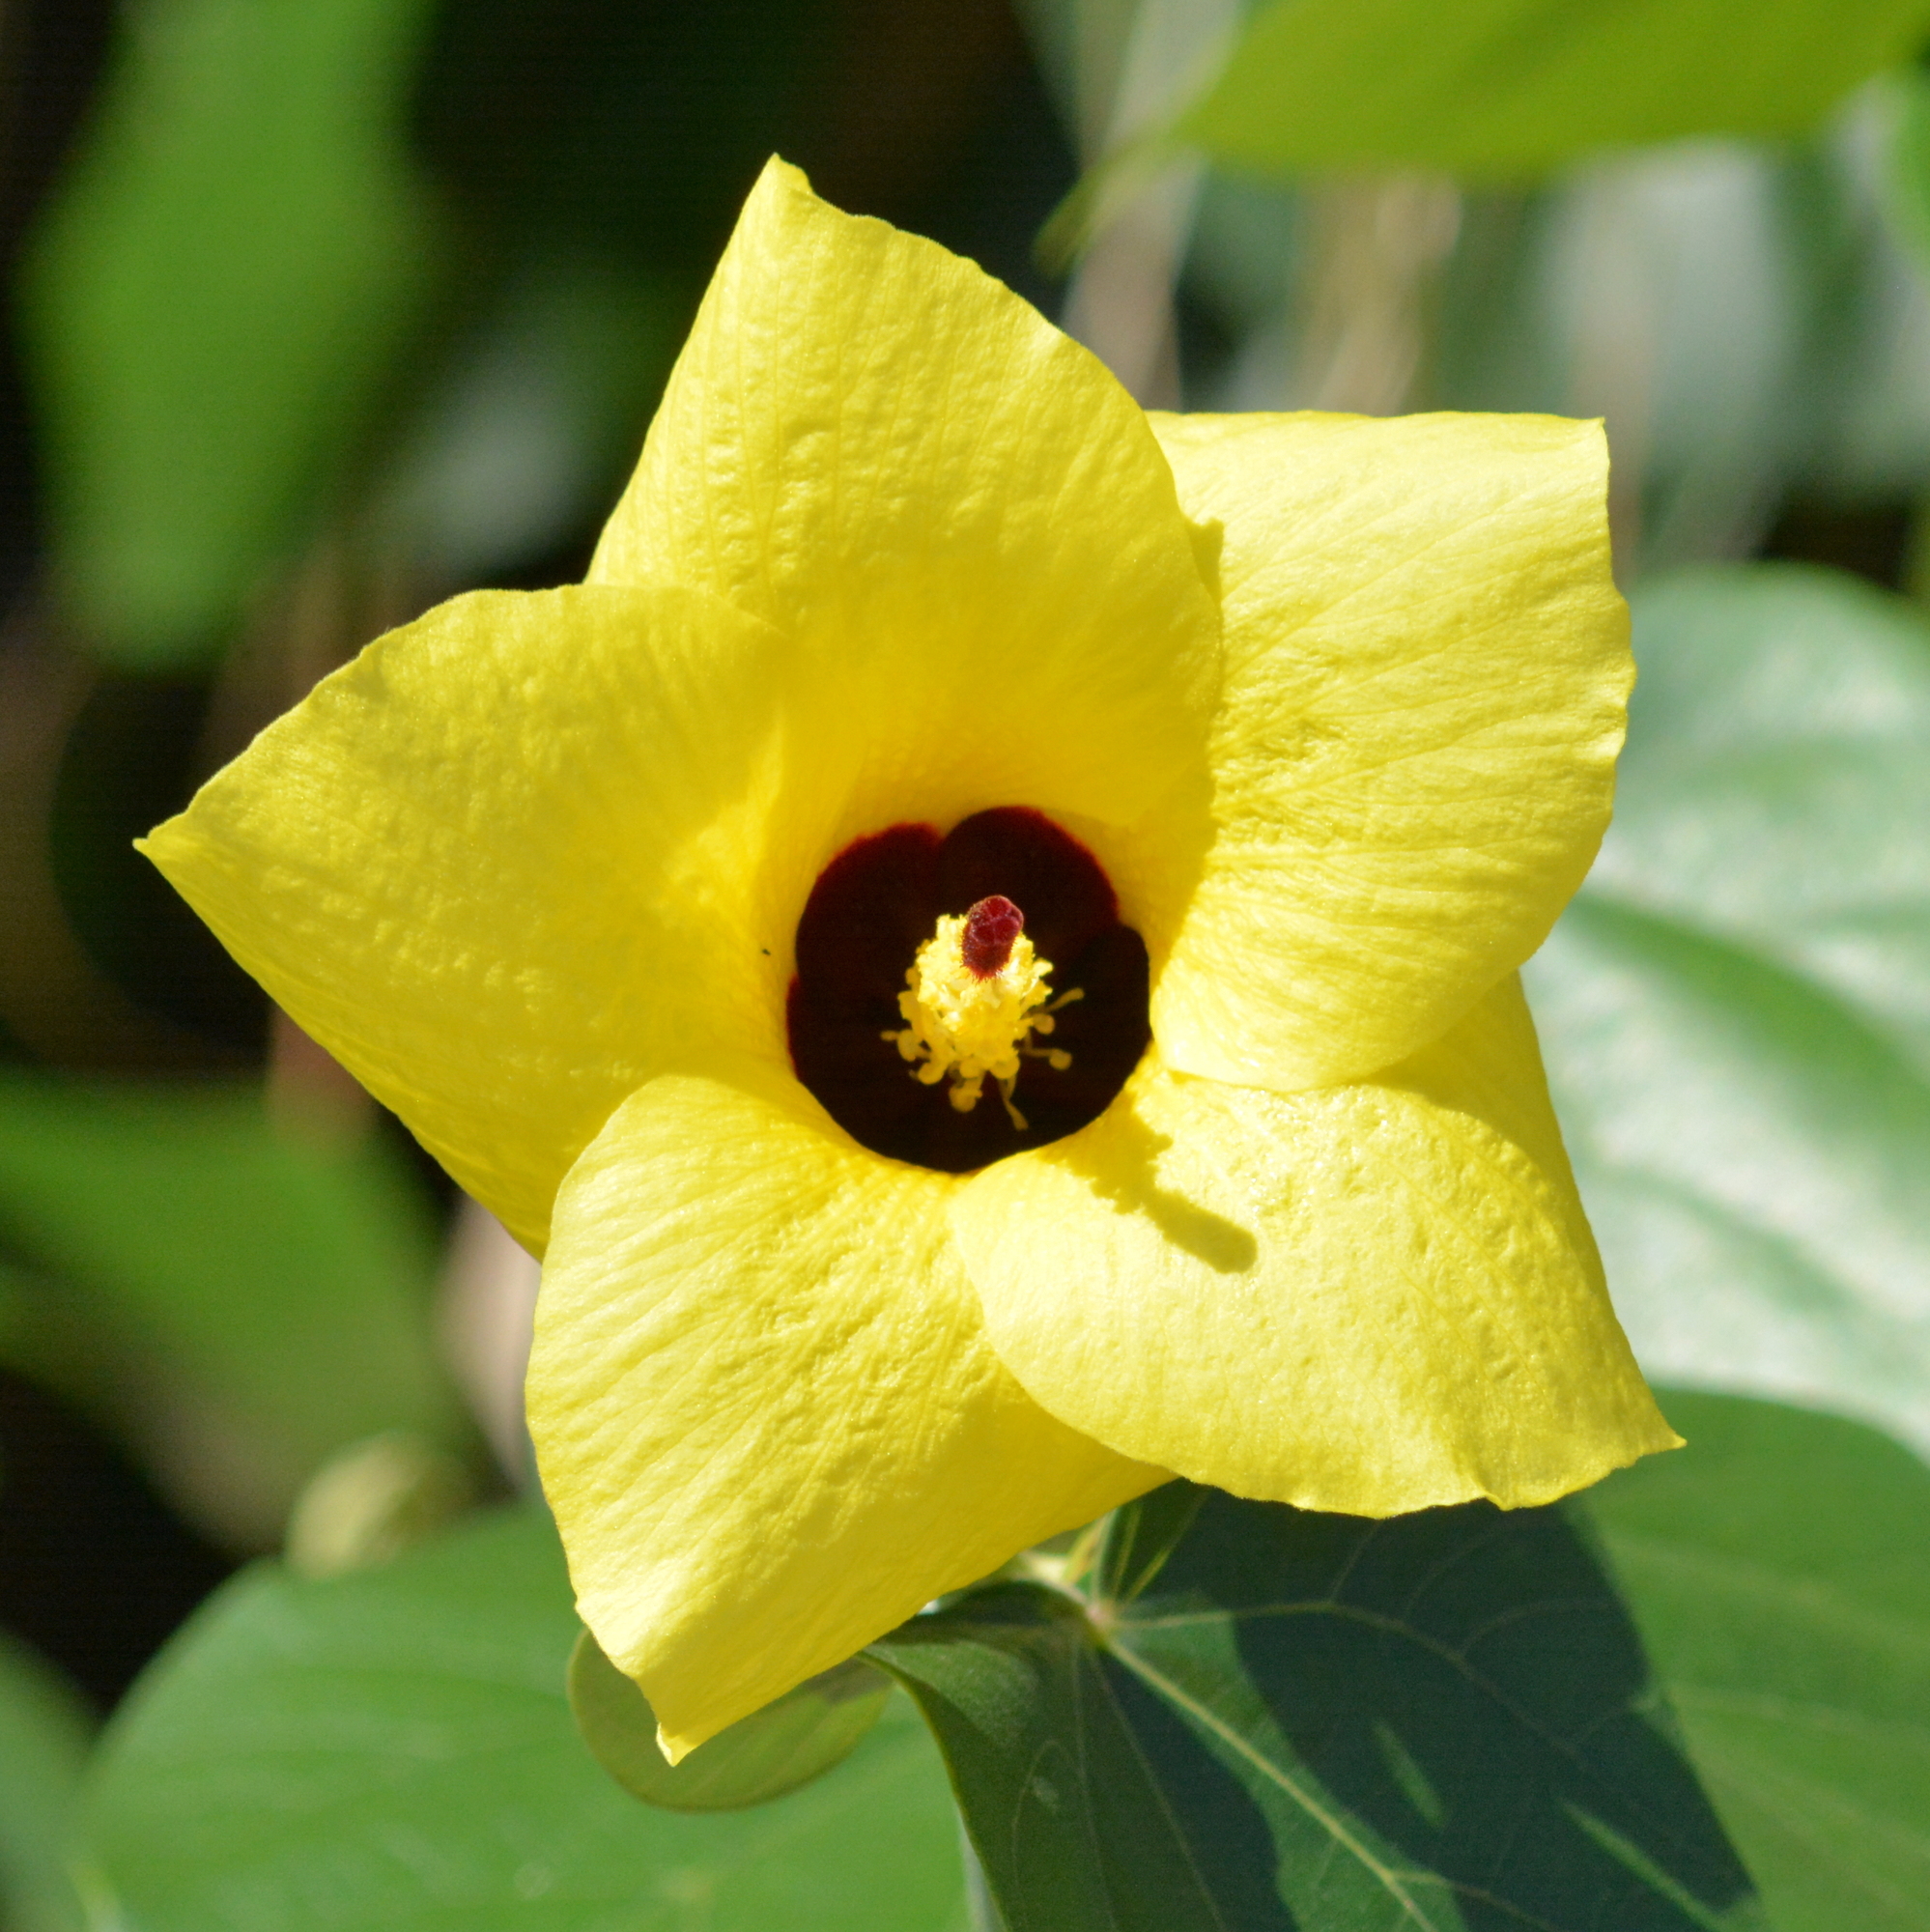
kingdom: Plantae
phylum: Tracheophyta
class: Magnoliopsida
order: Malvales
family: Malvaceae
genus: Talipariti
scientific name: Talipariti tiliaceum
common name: Sea hibiscus
